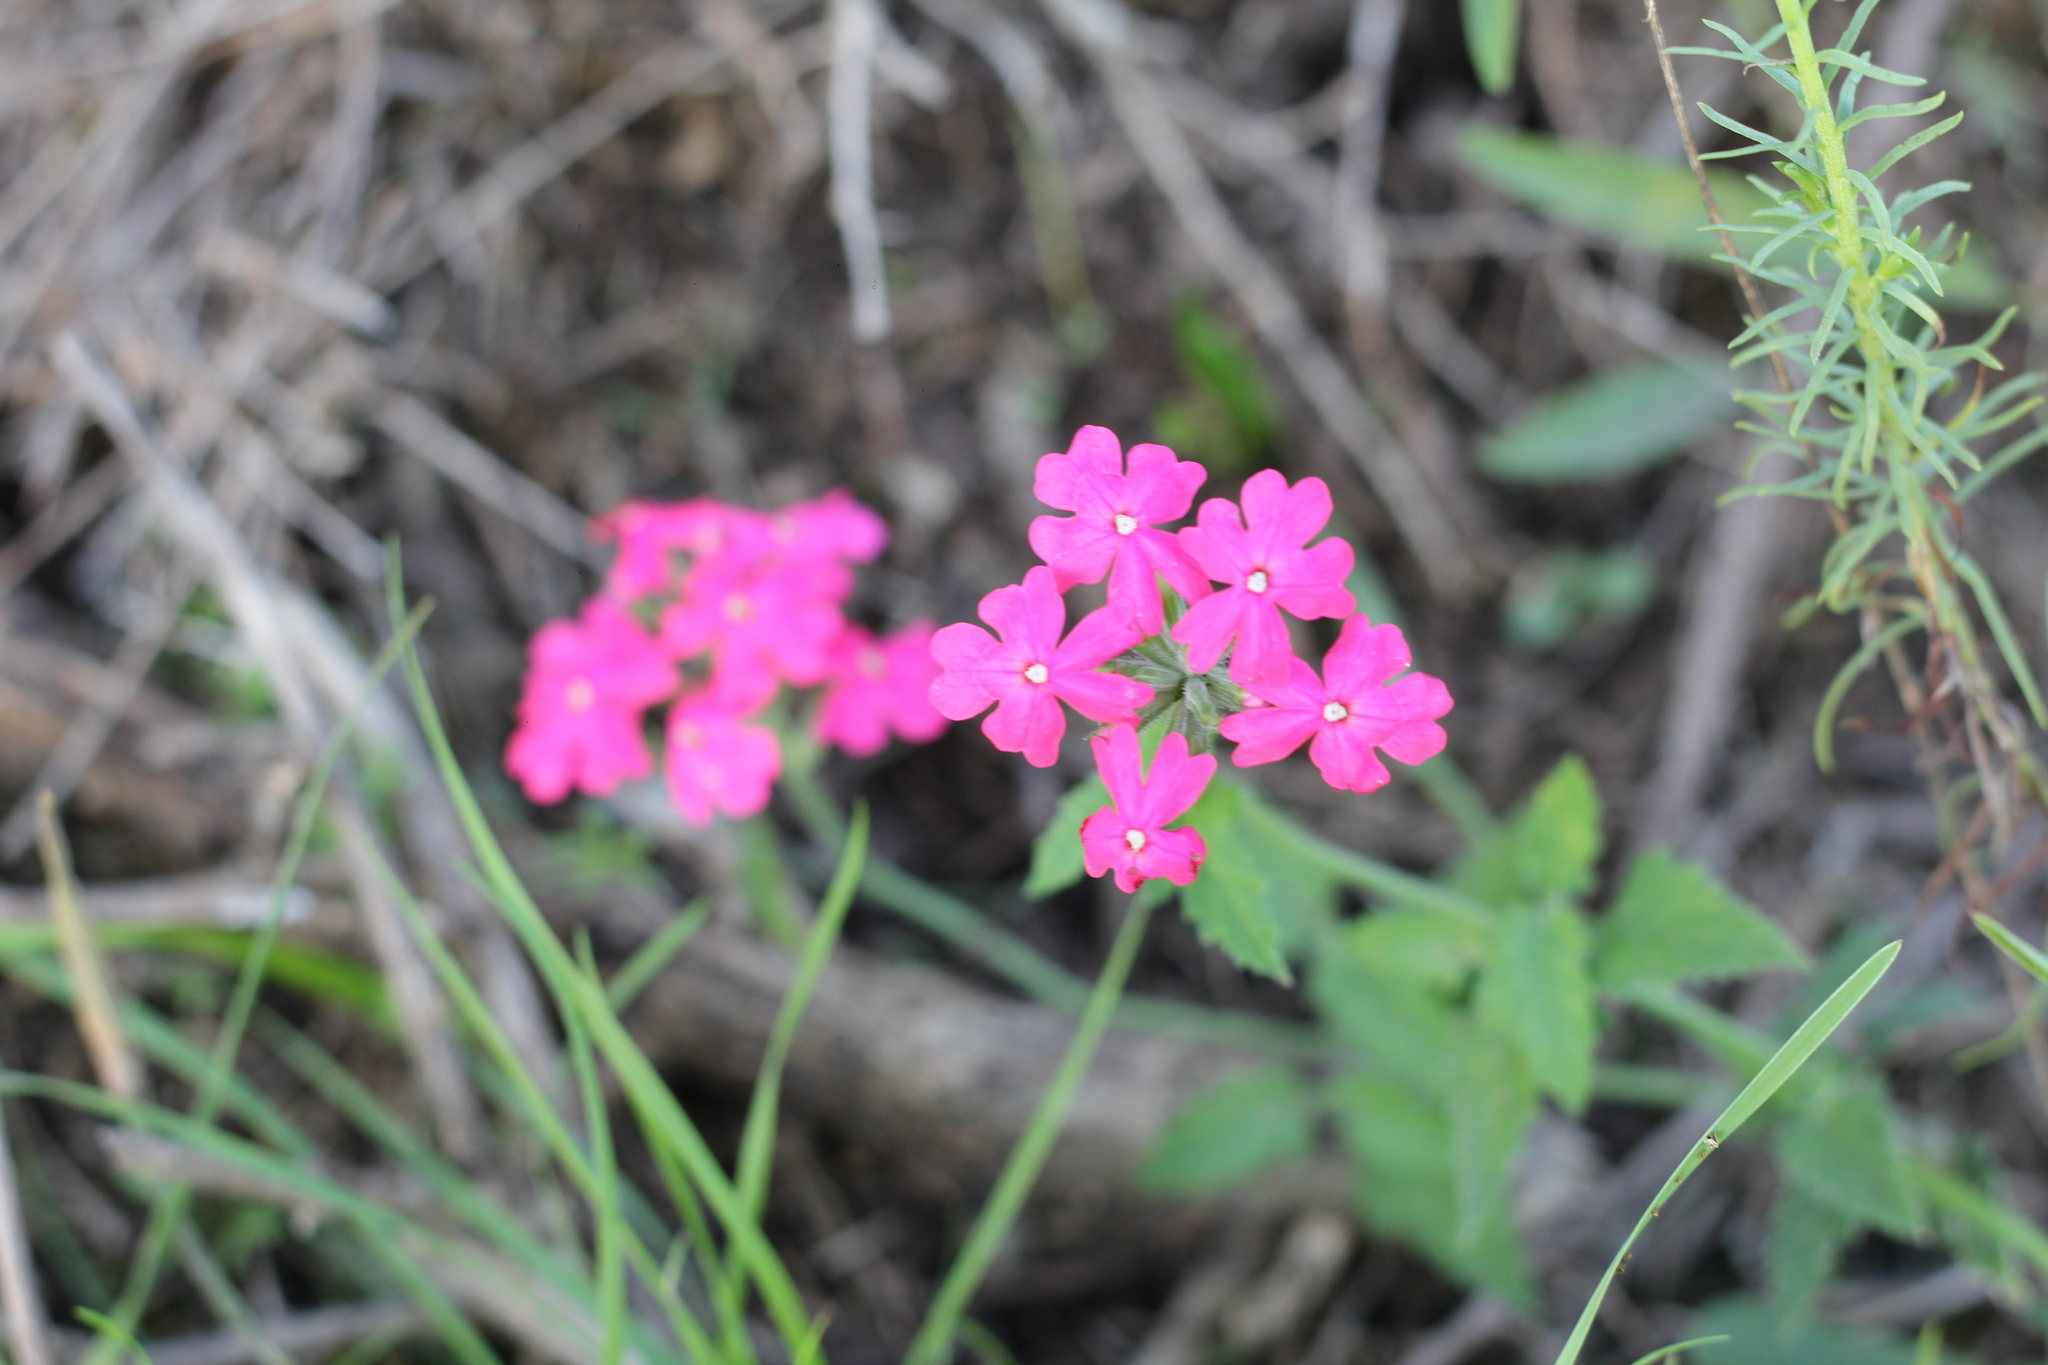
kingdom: Plantae
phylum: Tracheophyta
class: Magnoliopsida
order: Lamiales
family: Verbenaceae
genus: Verbena
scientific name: Verbena tweedieana
